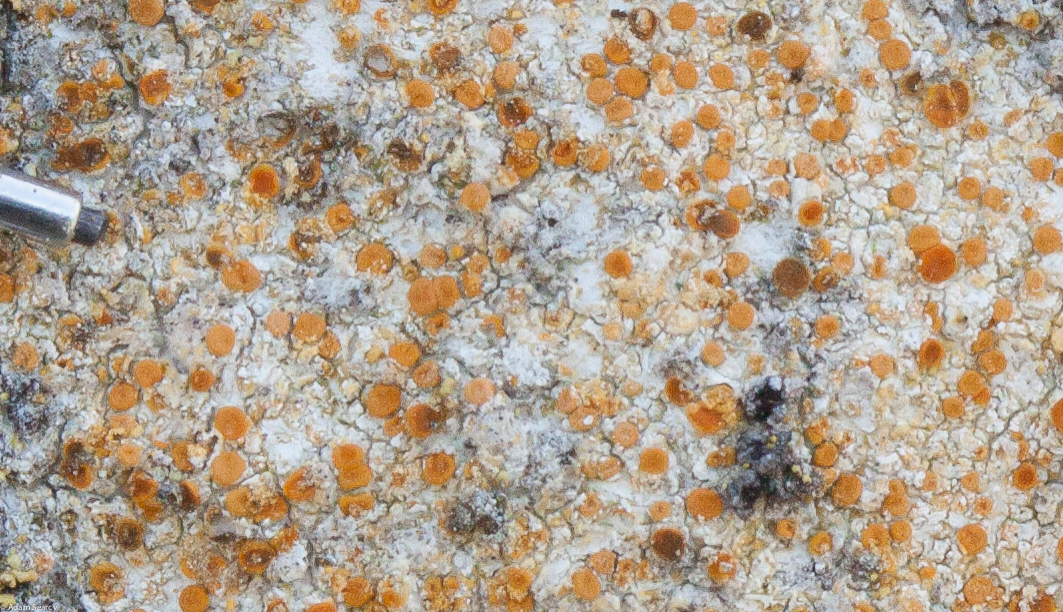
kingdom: Fungi
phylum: Ascomycota
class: Lecanoromycetes
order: Teloschistales
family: Teloschistaceae
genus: Gyalolechia
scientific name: Gyalolechia flavovirescens
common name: Sulphur firedot
